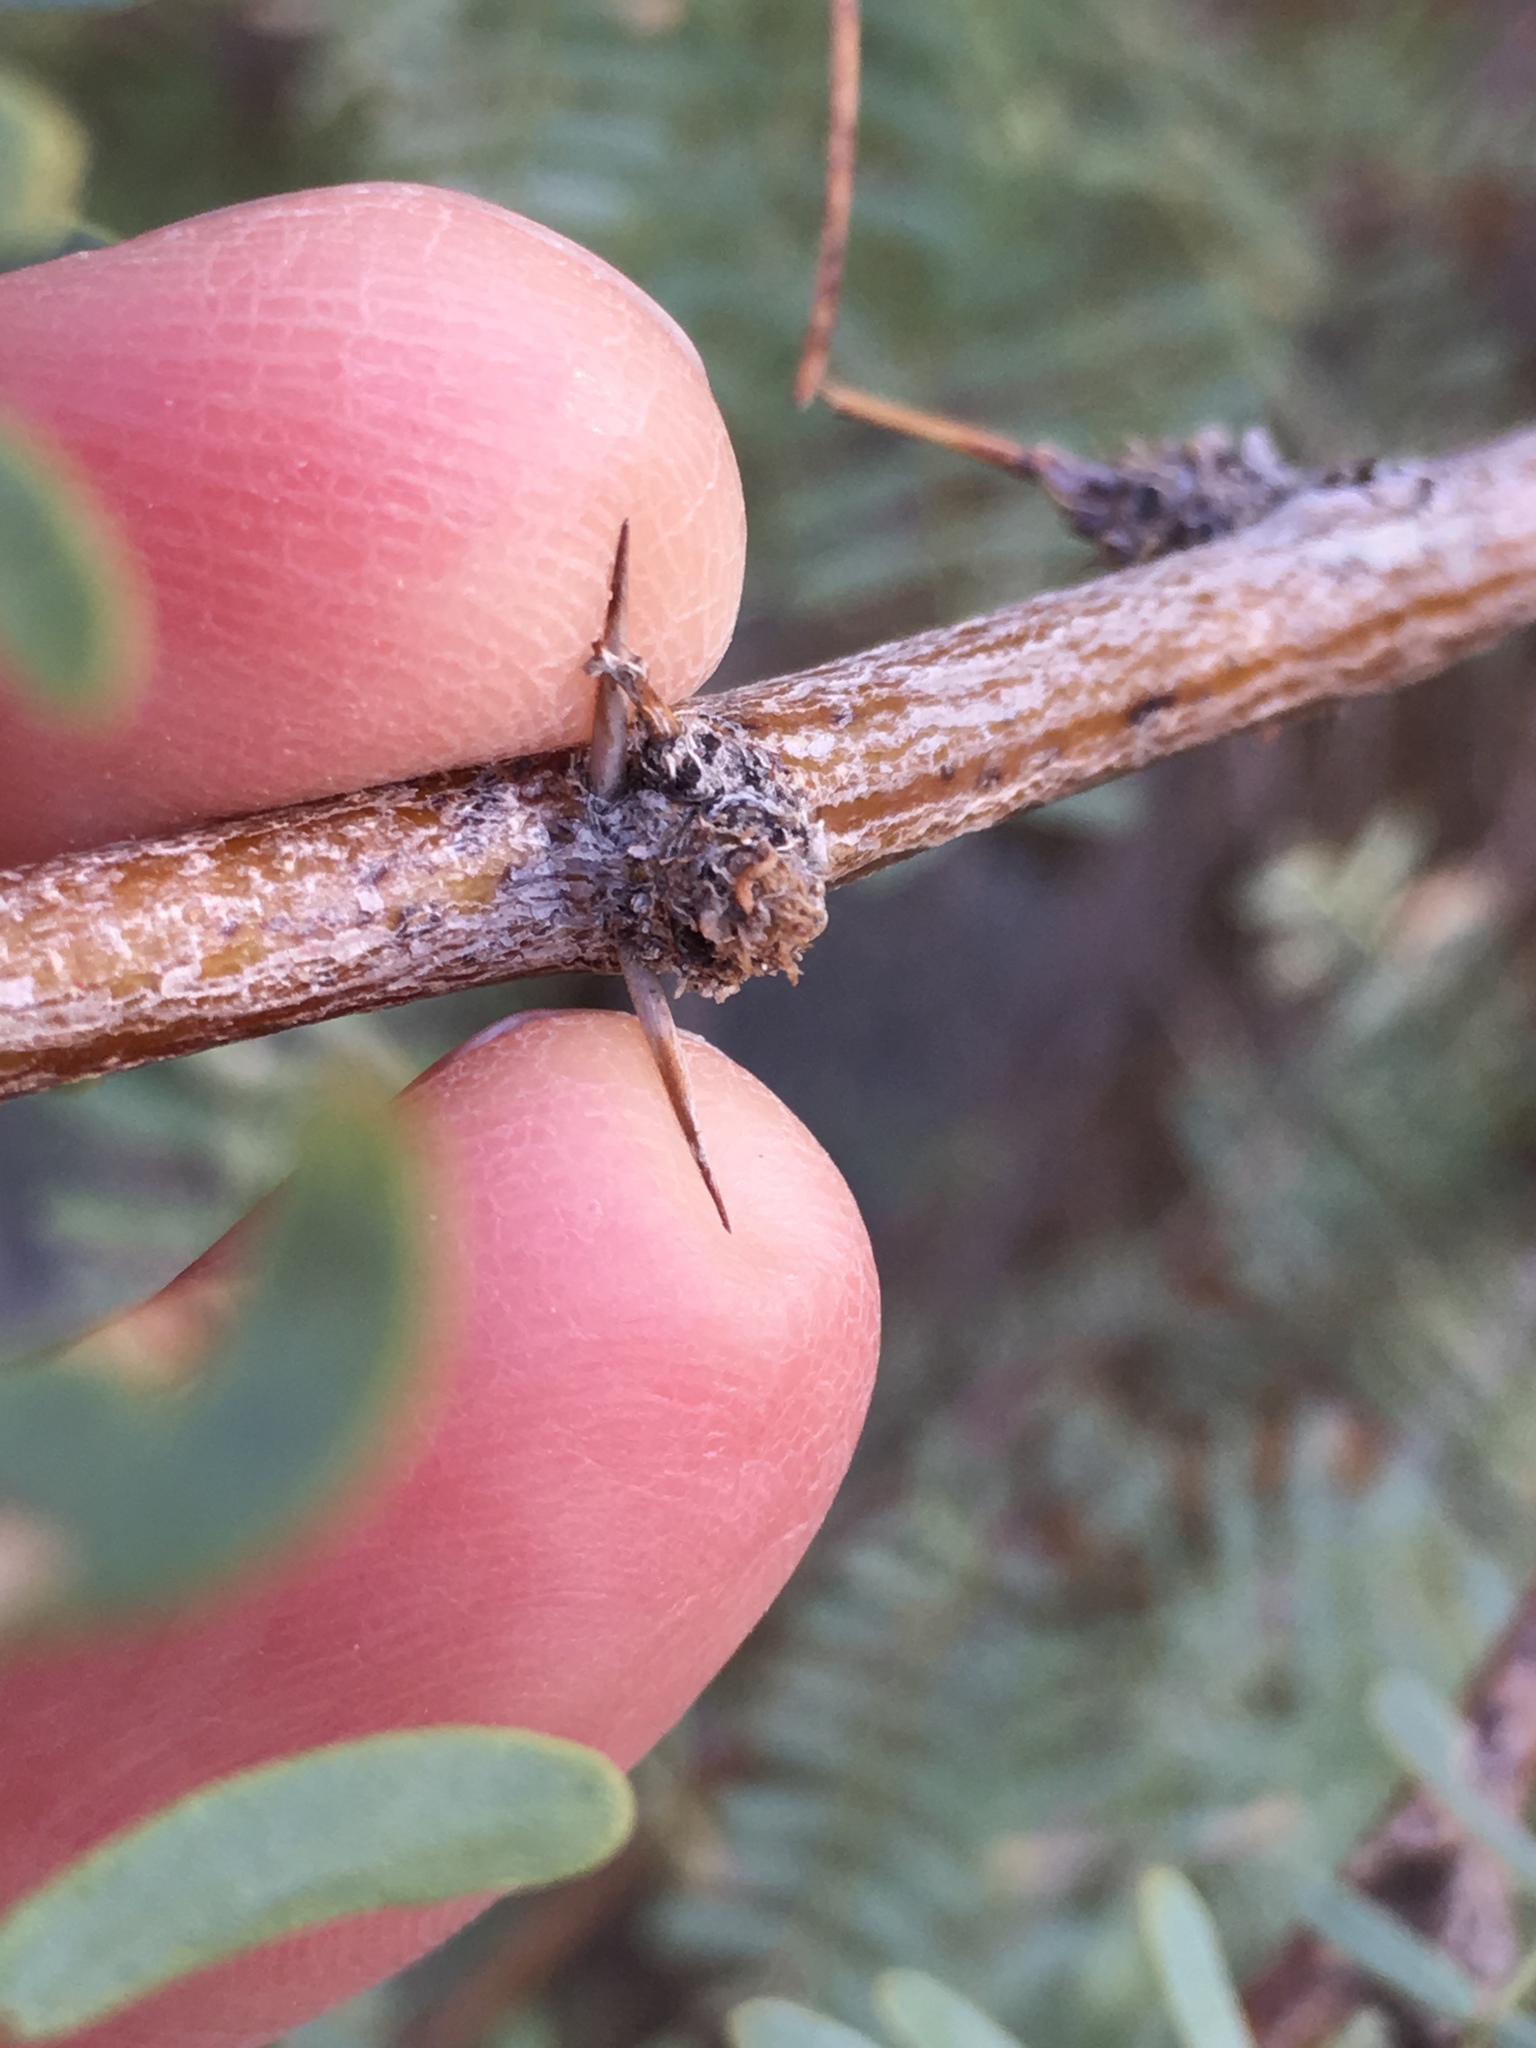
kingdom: Plantae
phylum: Tracheophyta
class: Magnoliopsida
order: Fabales
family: Fabaceae
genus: Prosopis
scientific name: Prosopis pubescens
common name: Screw-bean
